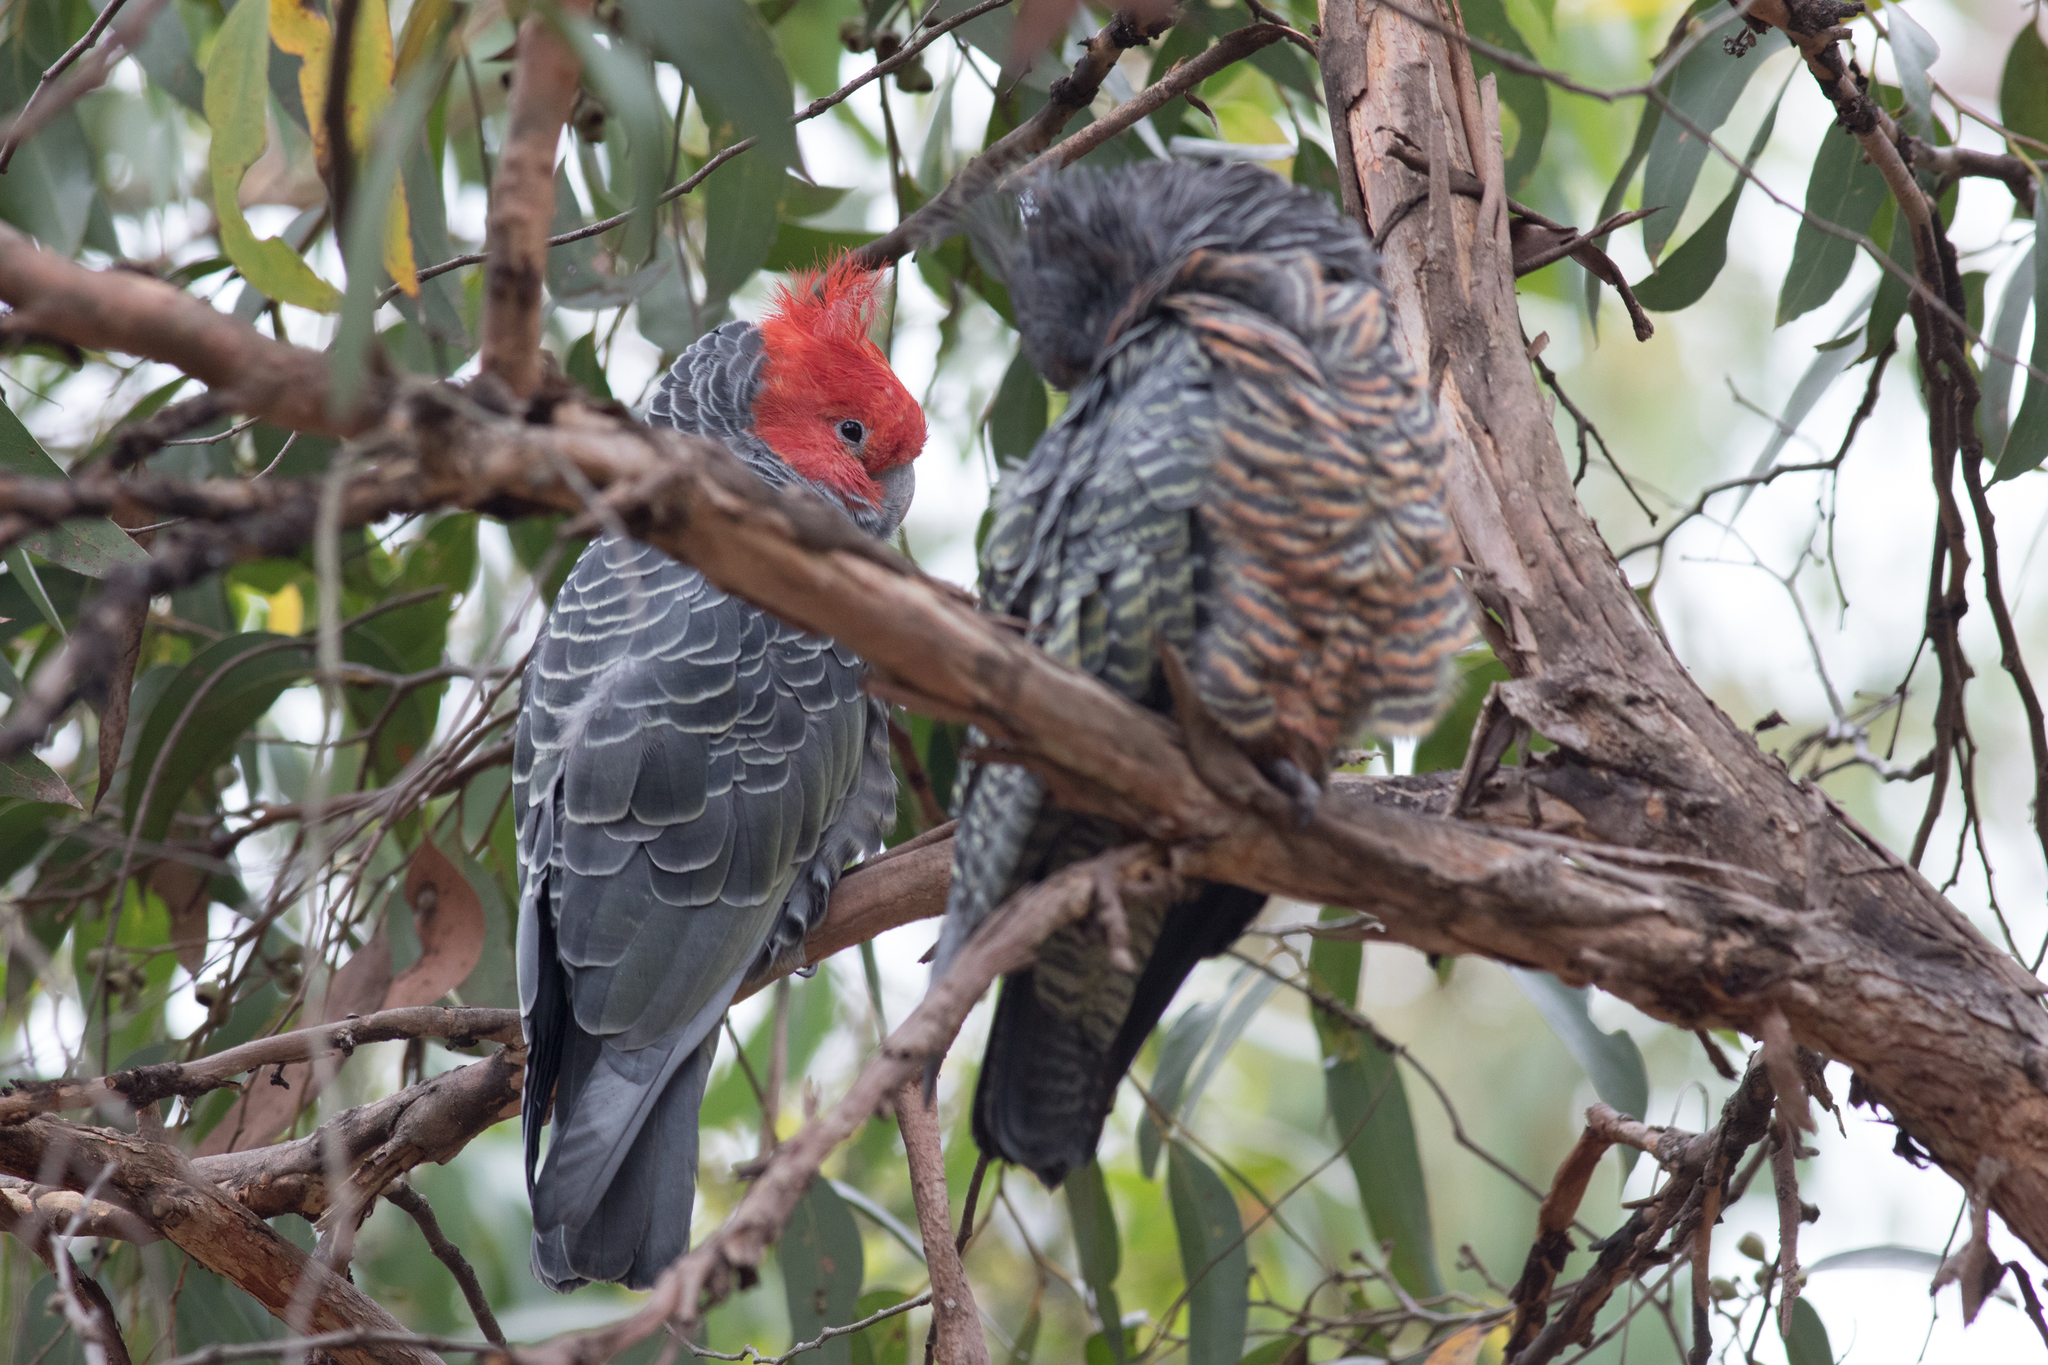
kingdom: Animalia
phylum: Chordata
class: Aves
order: Psittaciformes
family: Psittacidae
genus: Callocephalon
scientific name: Callocephalon fimbriatum
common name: Gang-gang cockatoo
